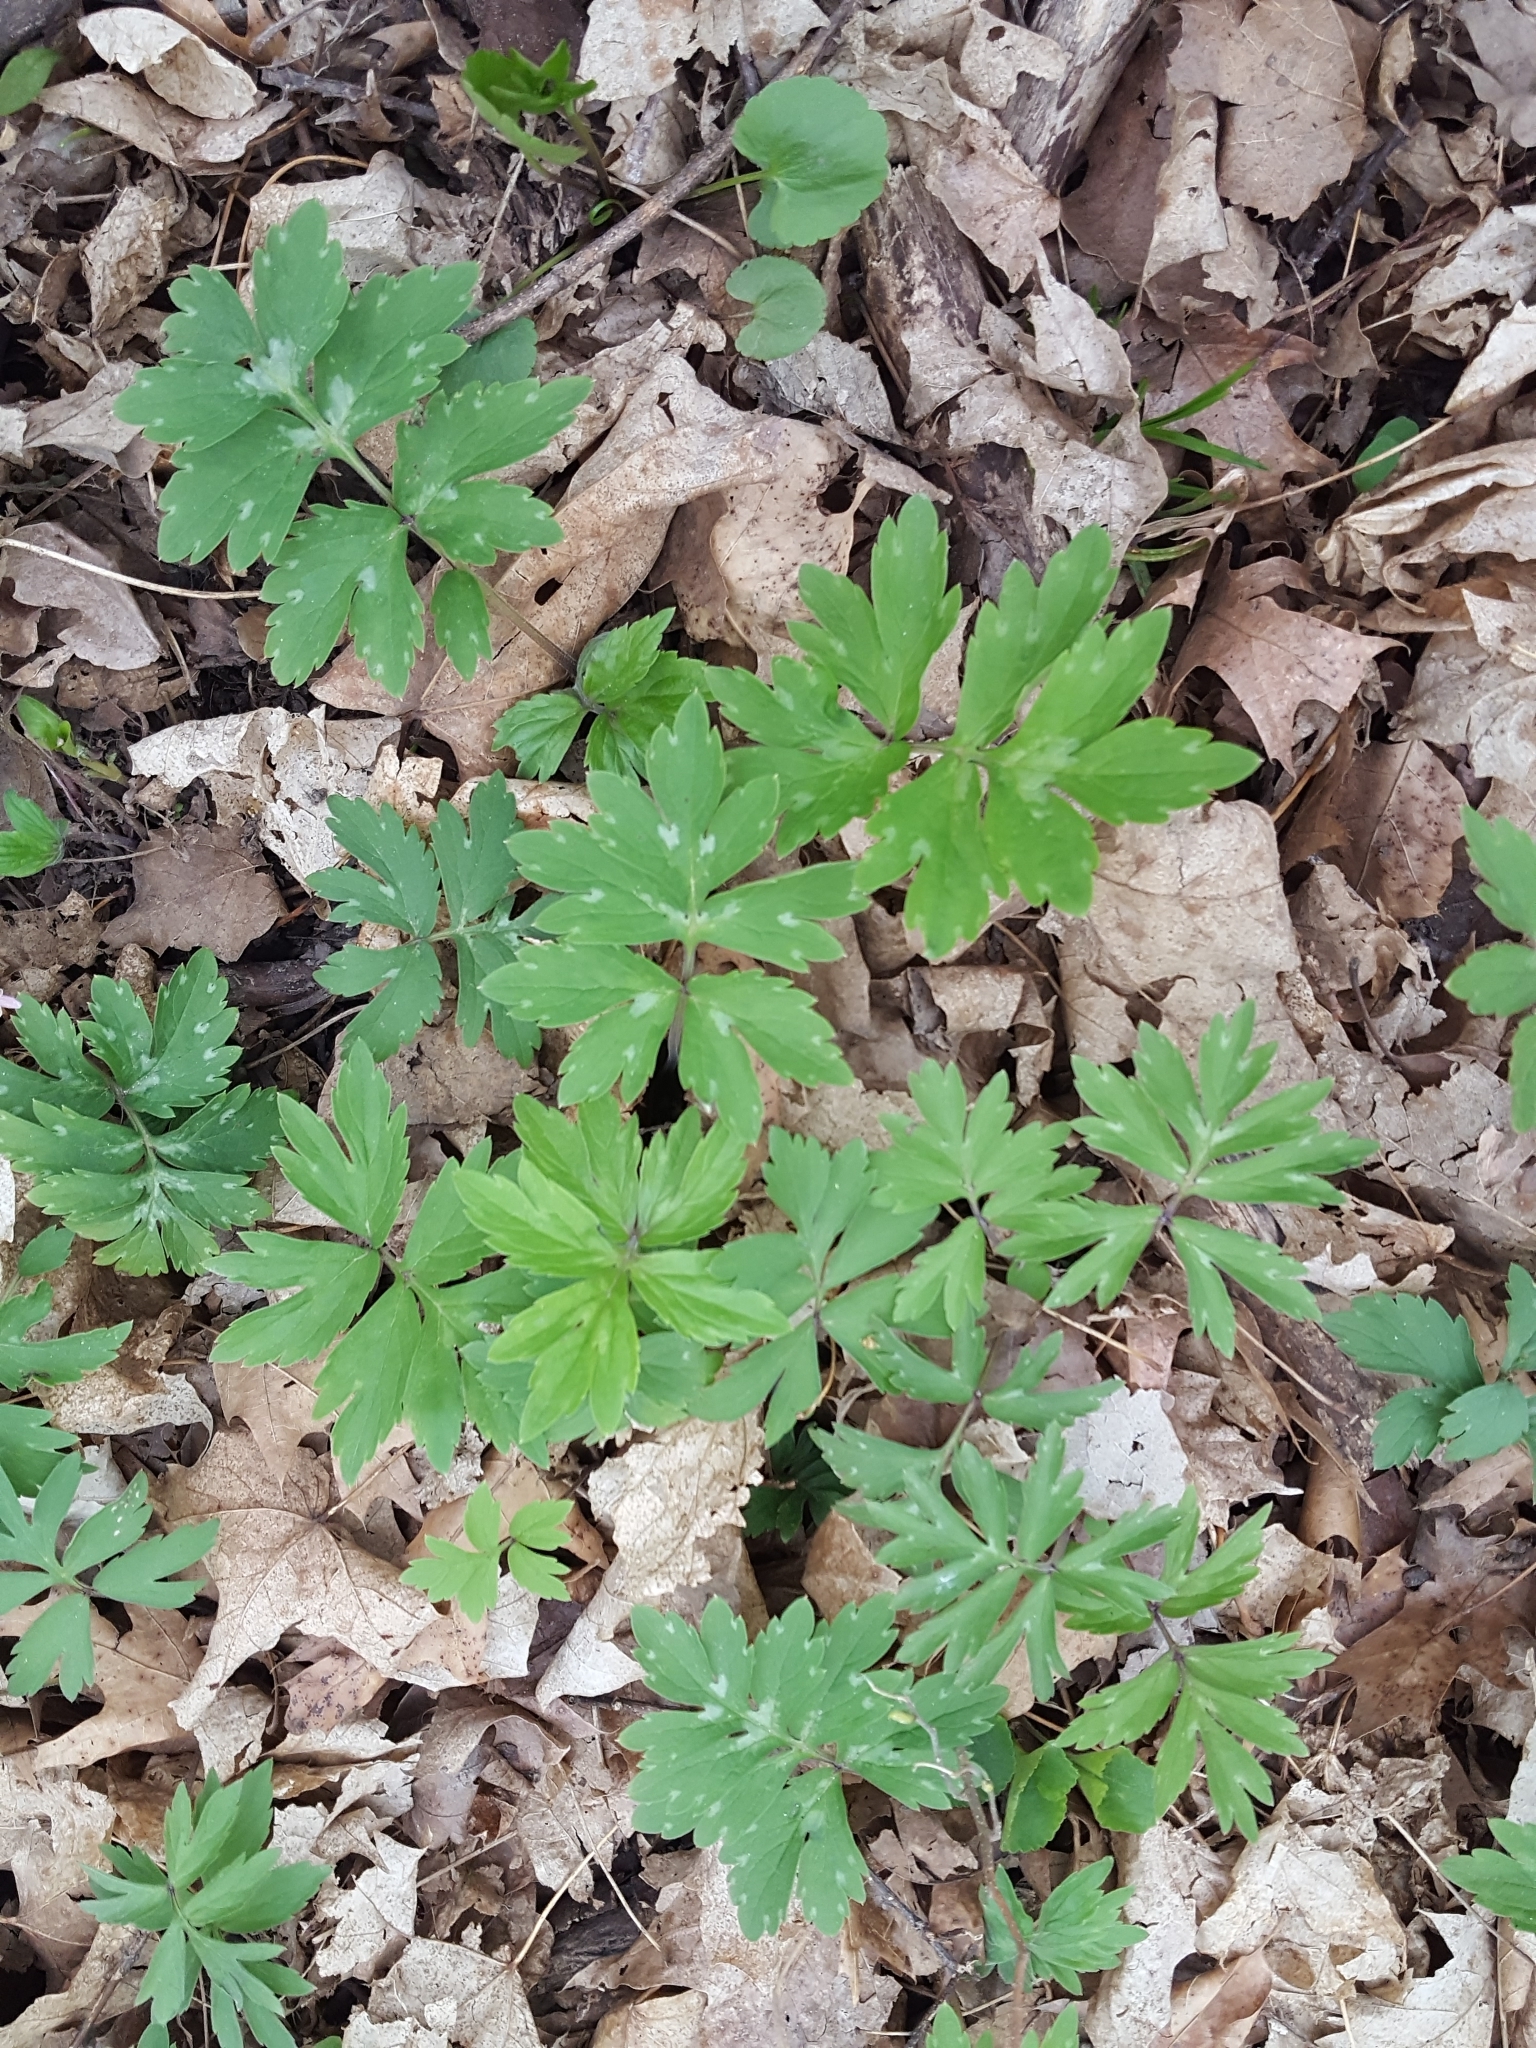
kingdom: Plantae
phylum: Tracheophyta
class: Magnoliopsida
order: Boraginales
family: Hydrophyllaceae
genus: Hydrophyllum
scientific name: Hydrophyllum virginianum
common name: Virginia waterleaf
